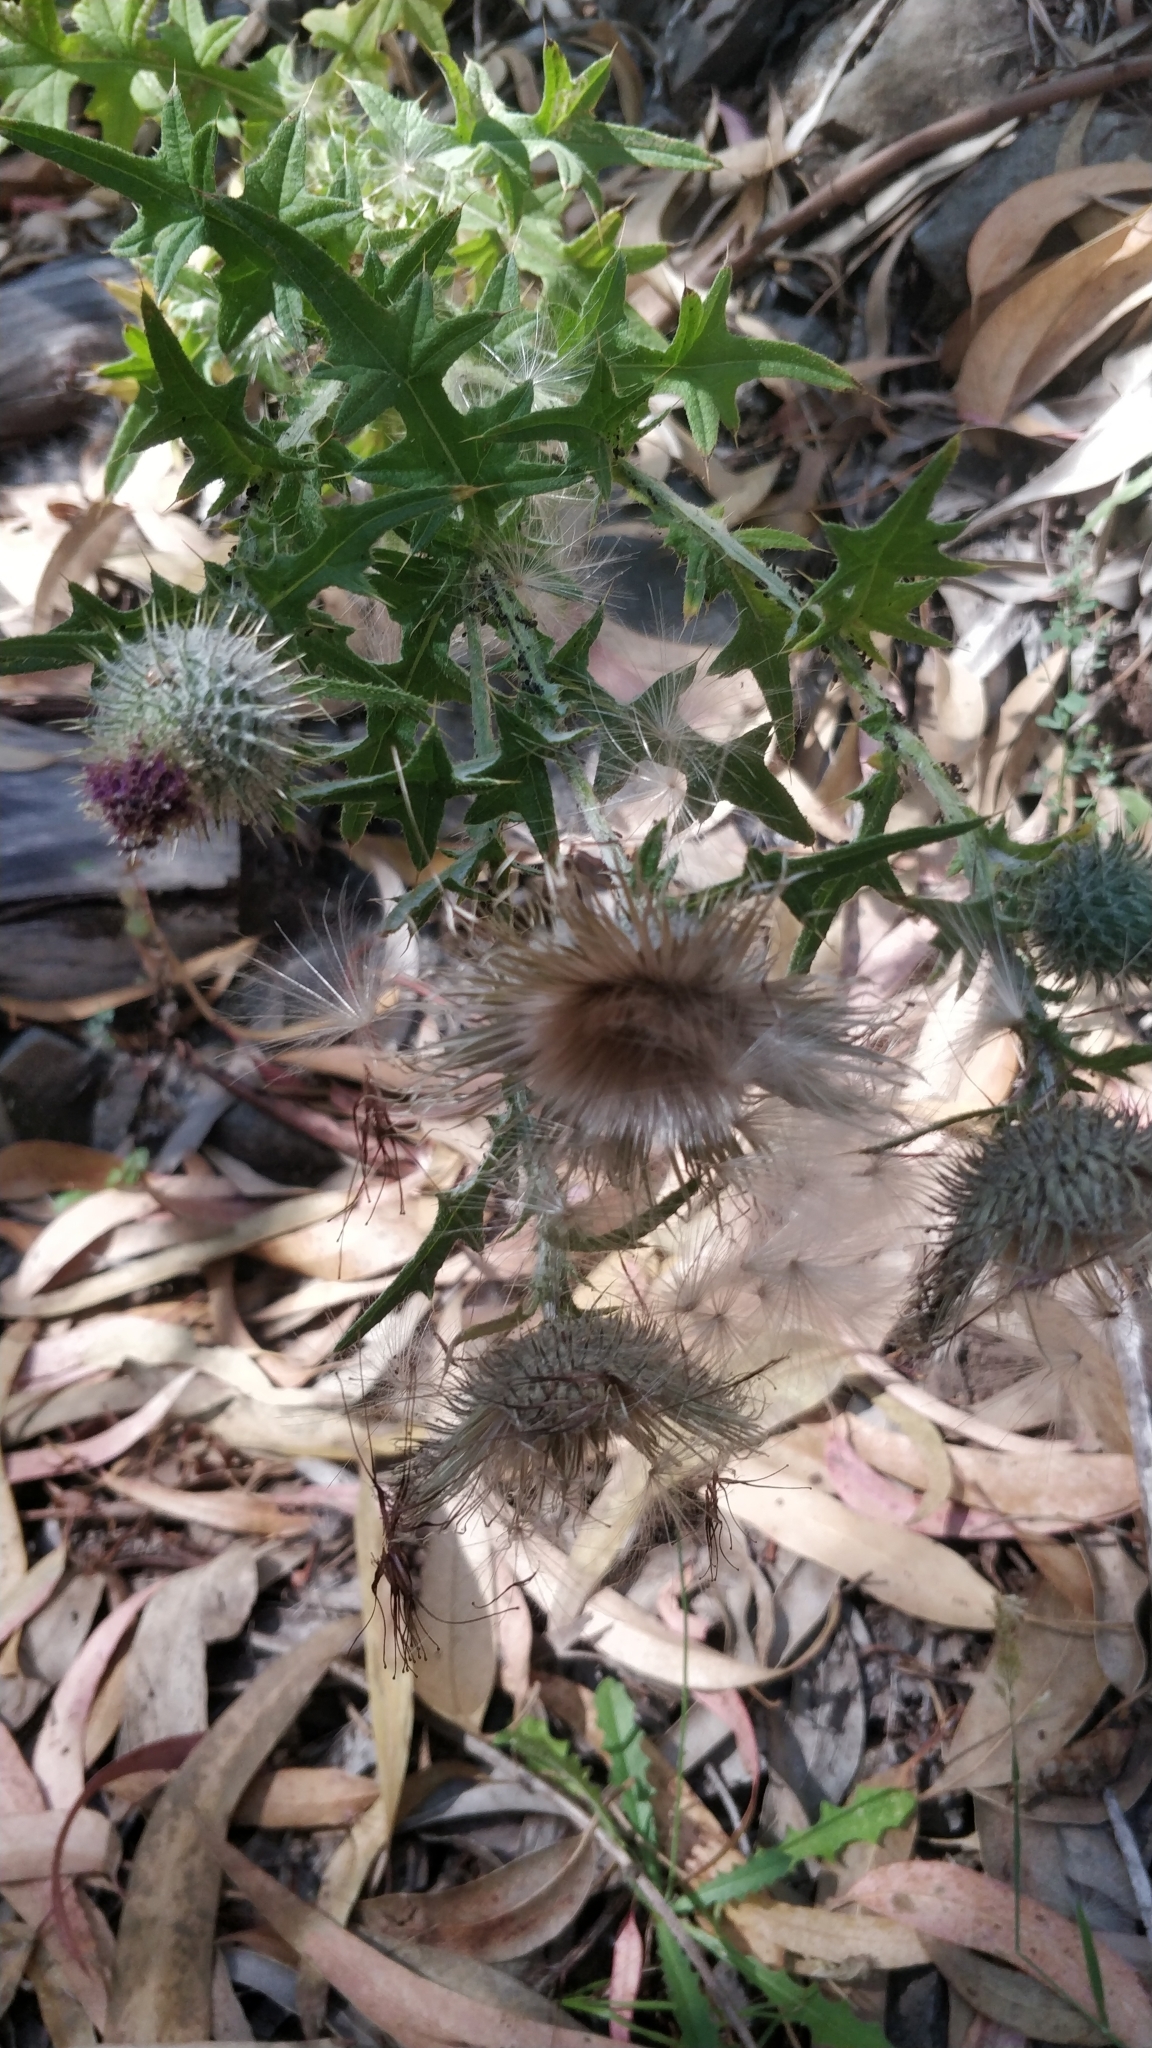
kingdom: Plantae
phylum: Tracheophyta
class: Magnoliopsida
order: Asterales
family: Asteraceae
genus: Cirsium
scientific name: Cirsium vulgare
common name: Bull thistle
